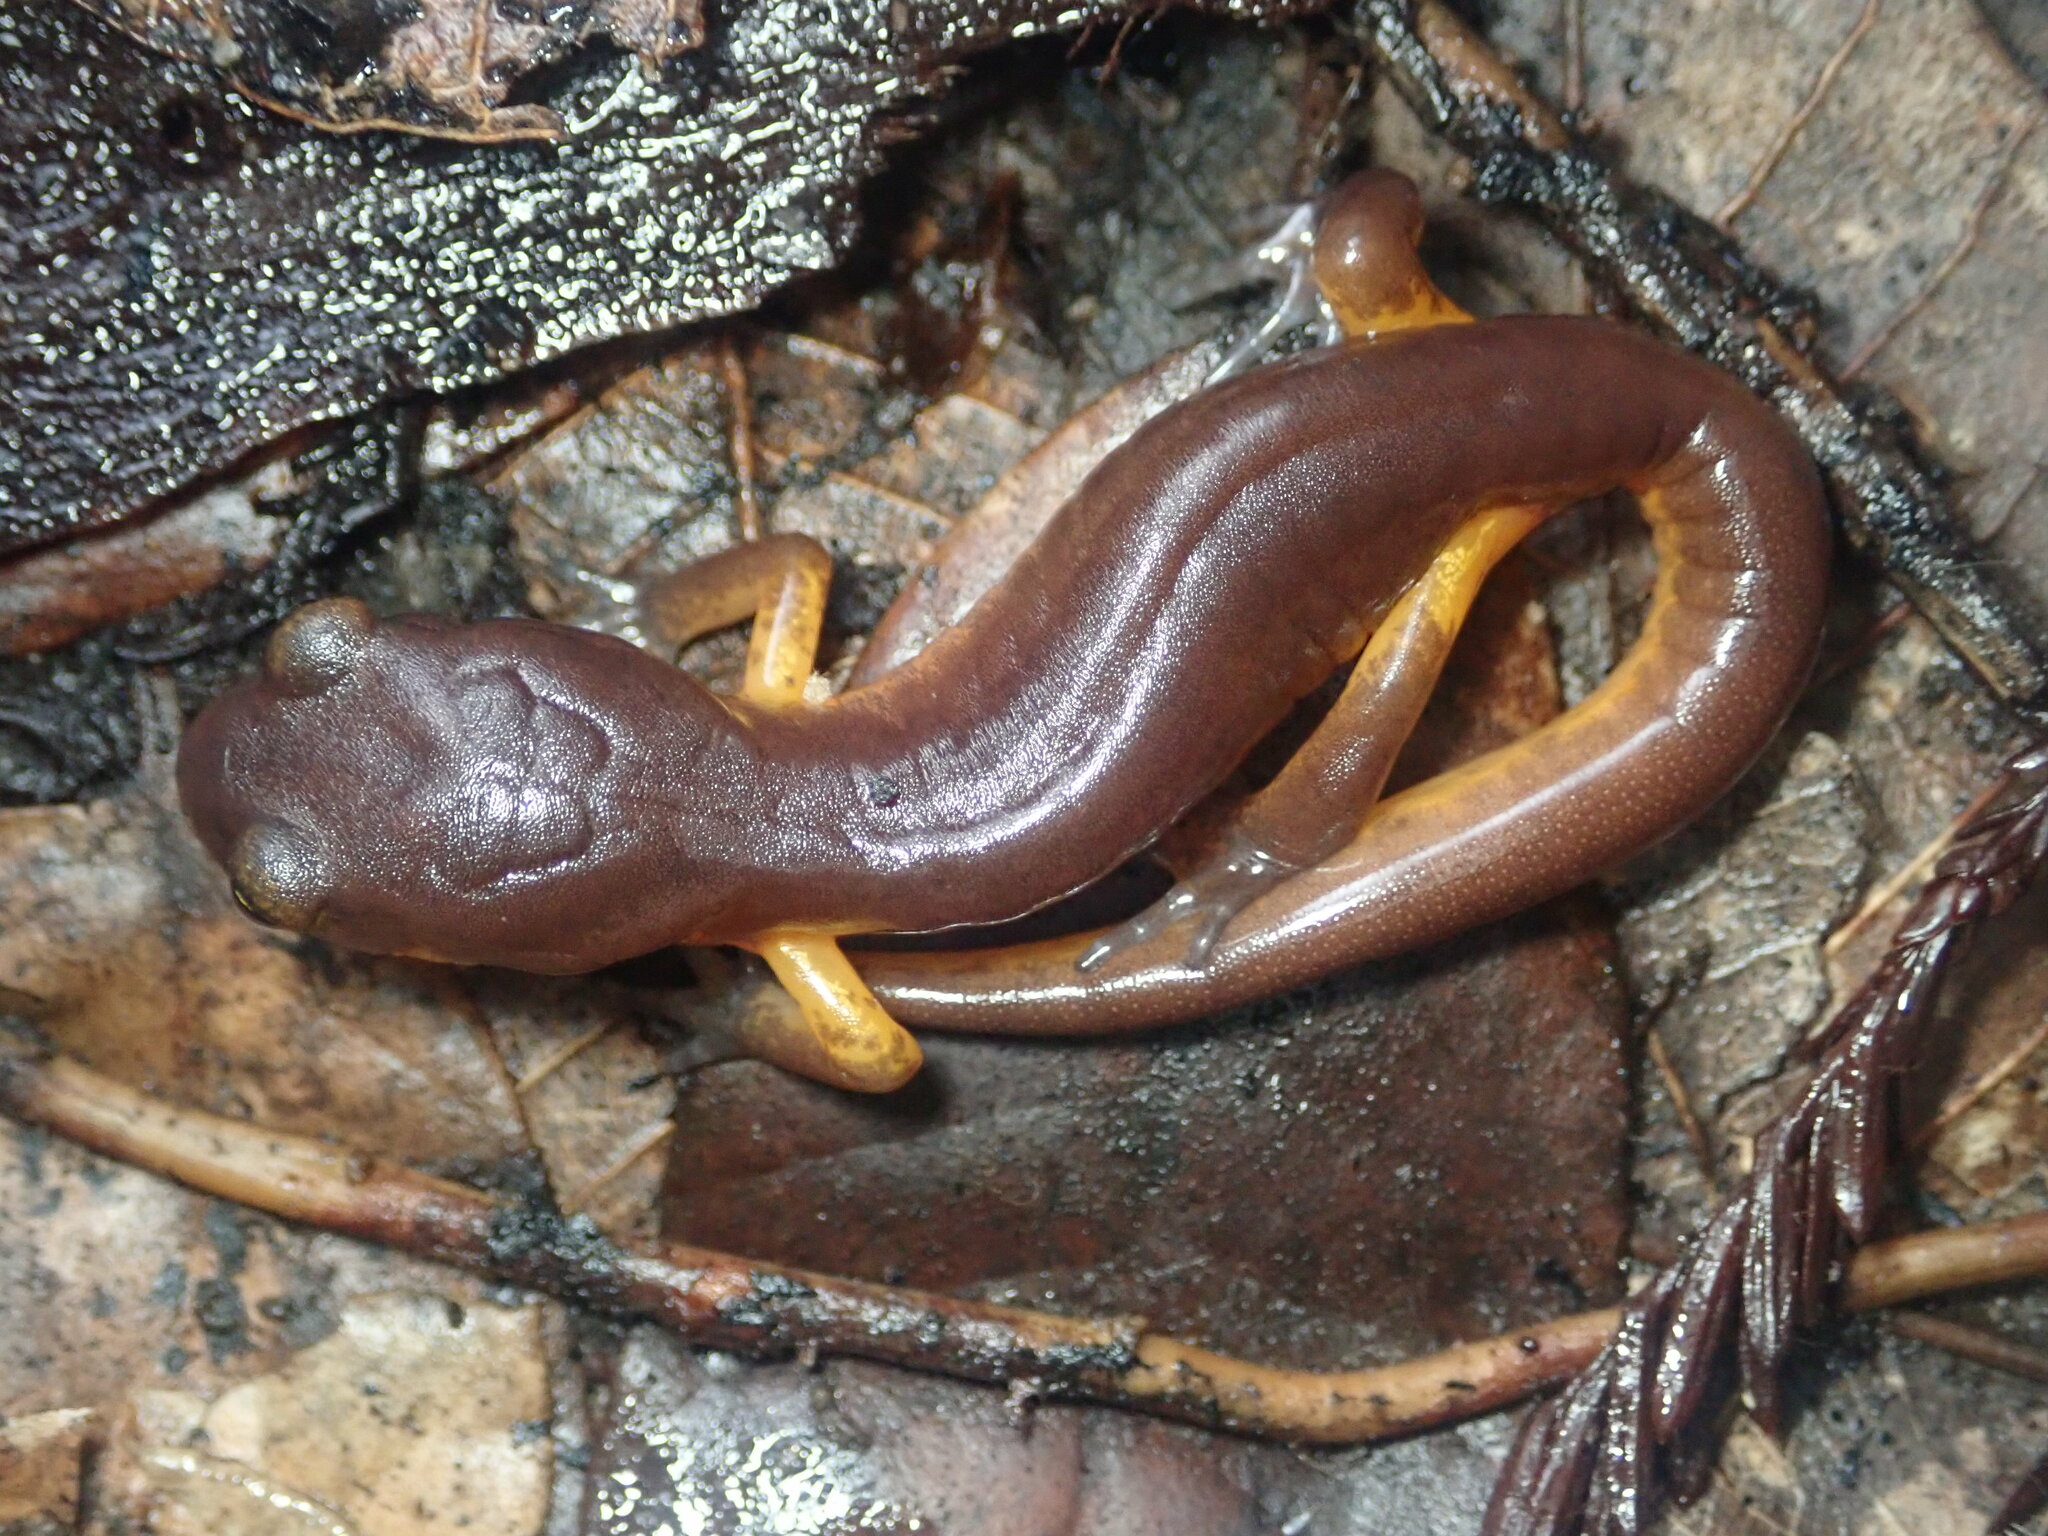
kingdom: Animalia
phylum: Chordata
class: Amphibia
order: Caudata
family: Plethodontidae
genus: Ensatina
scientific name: Ensatina eschscholtzii
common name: Ensatina
